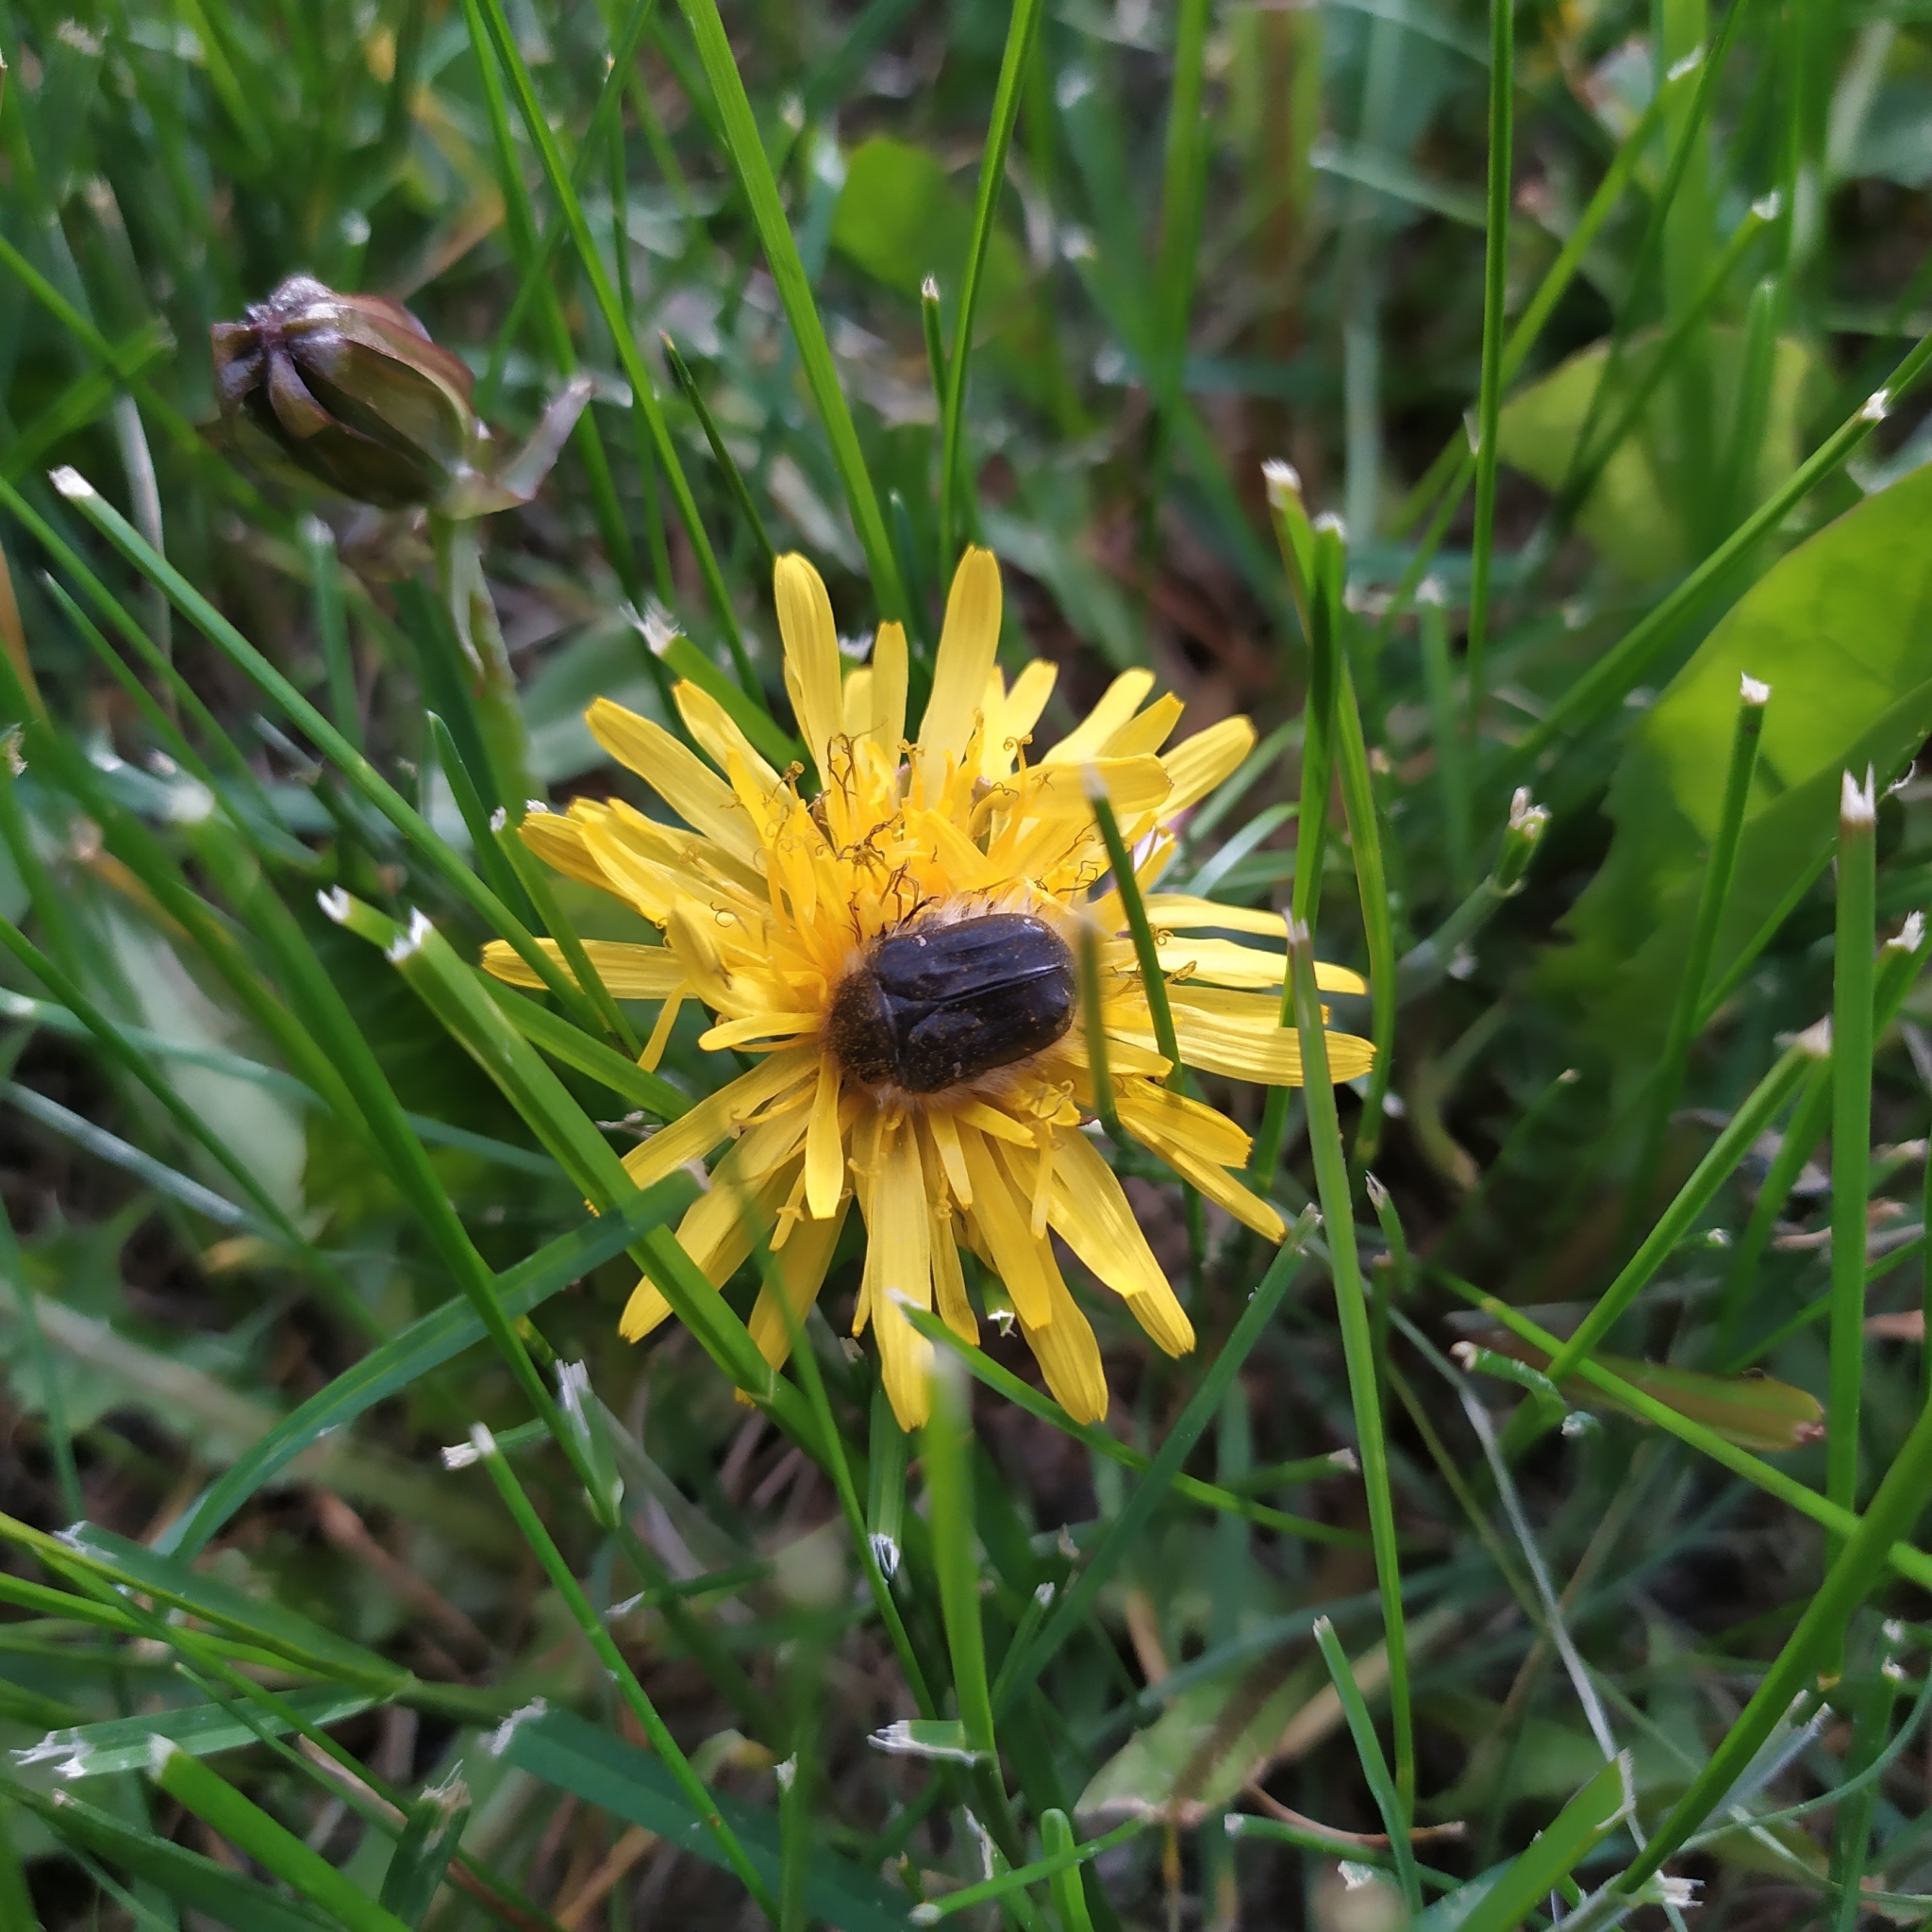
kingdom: Animalia
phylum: Arthropoda
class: Insecta
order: Coleoptera
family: Scarabaeidae
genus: Tropinota
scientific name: Tropinota hirta
